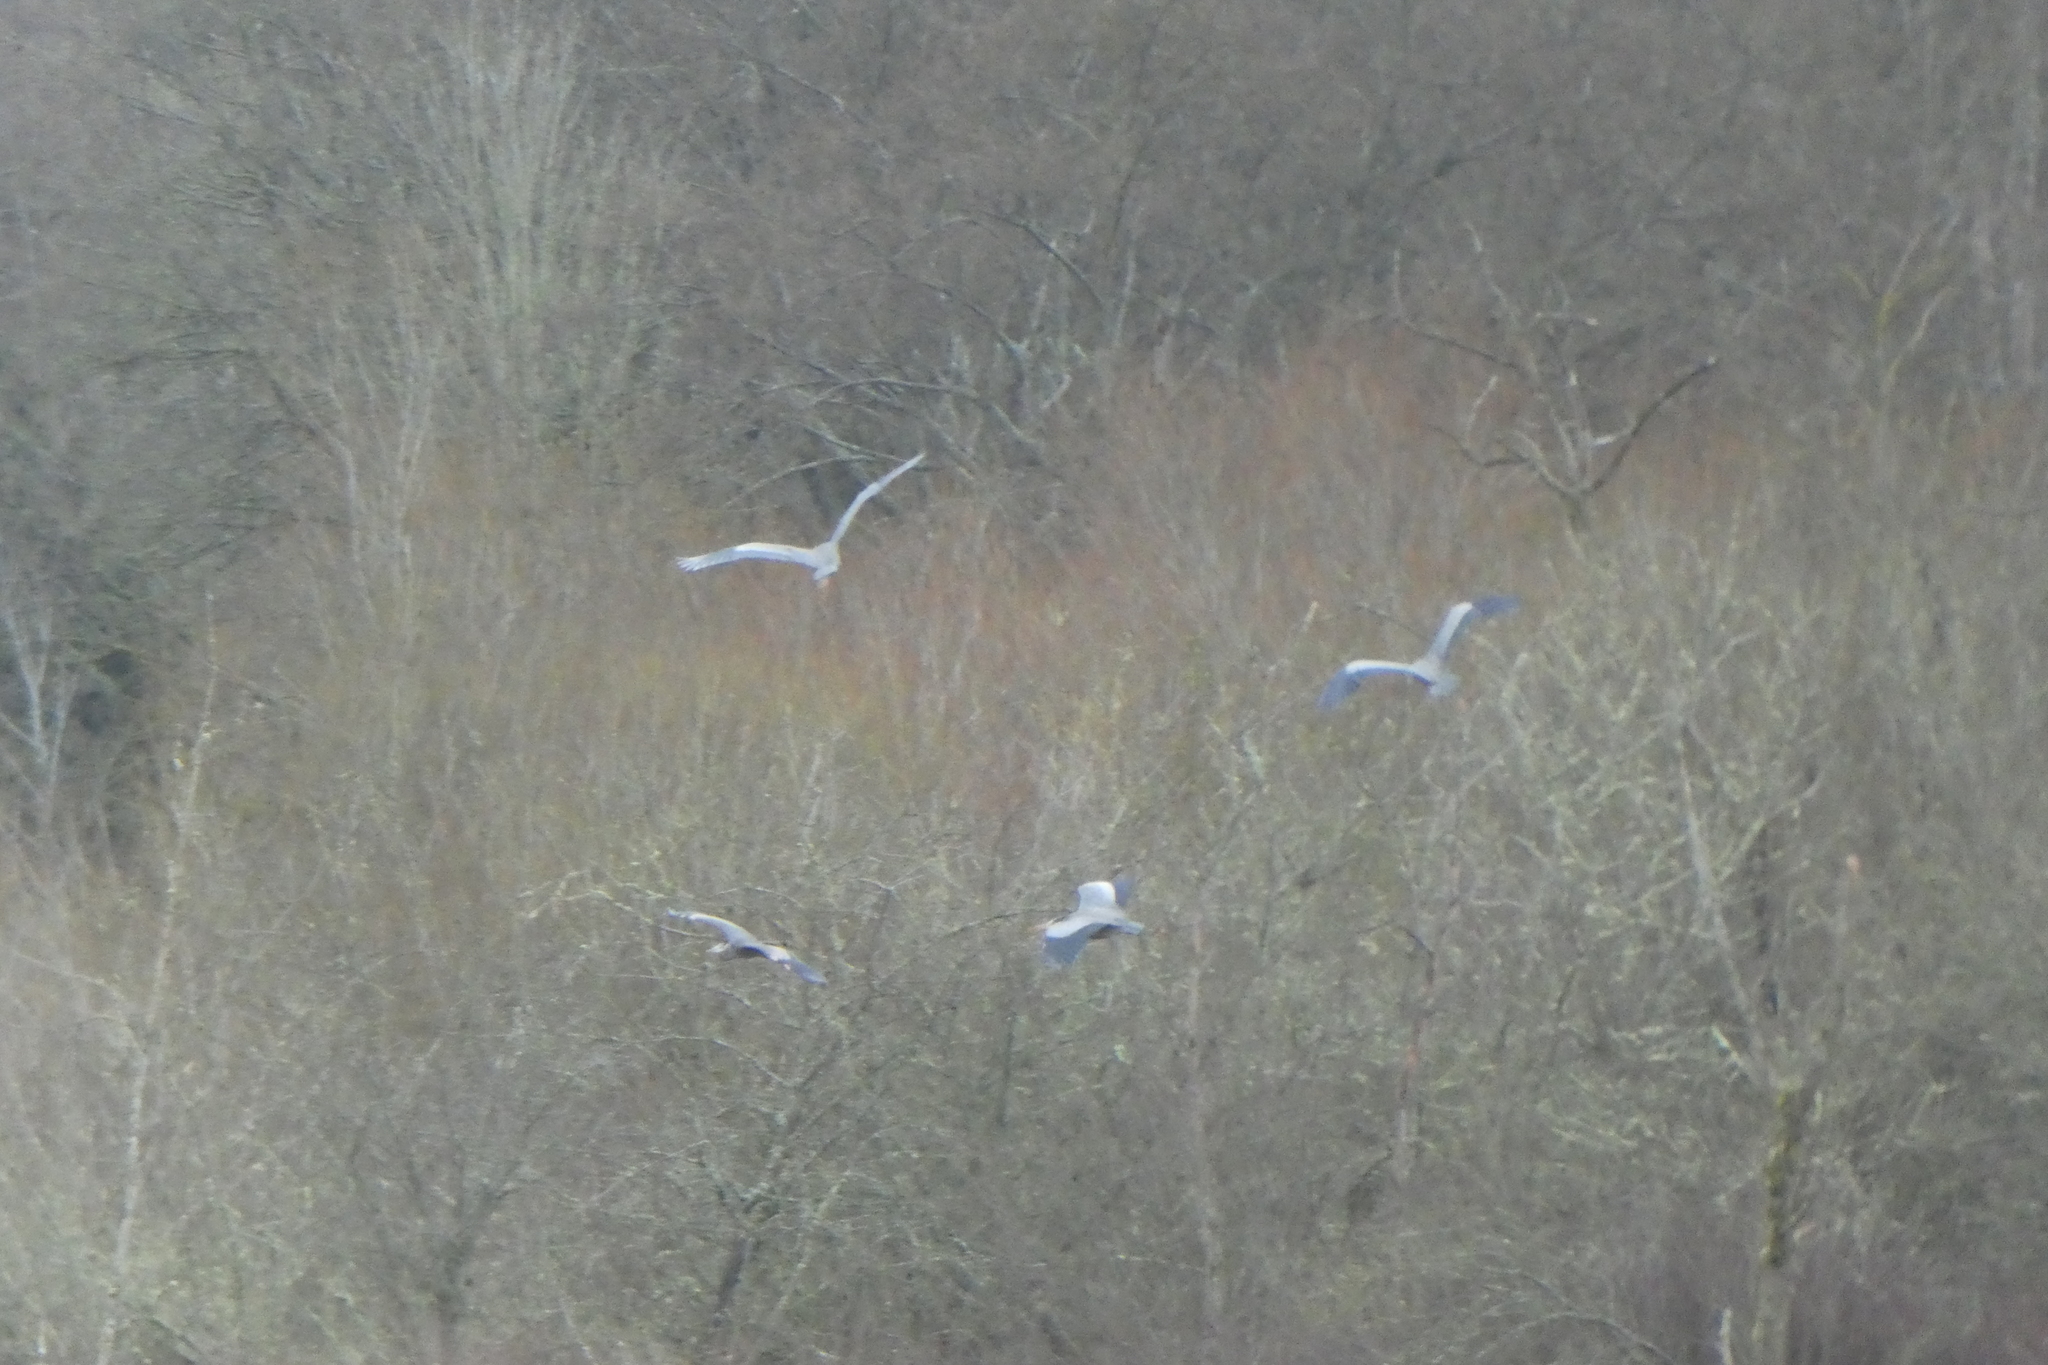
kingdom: Animalia
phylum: Chordata
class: Aves
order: Pelecaniformes
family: Ardeidae
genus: Ardea
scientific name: Ardea herodias
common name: Great blue heron
